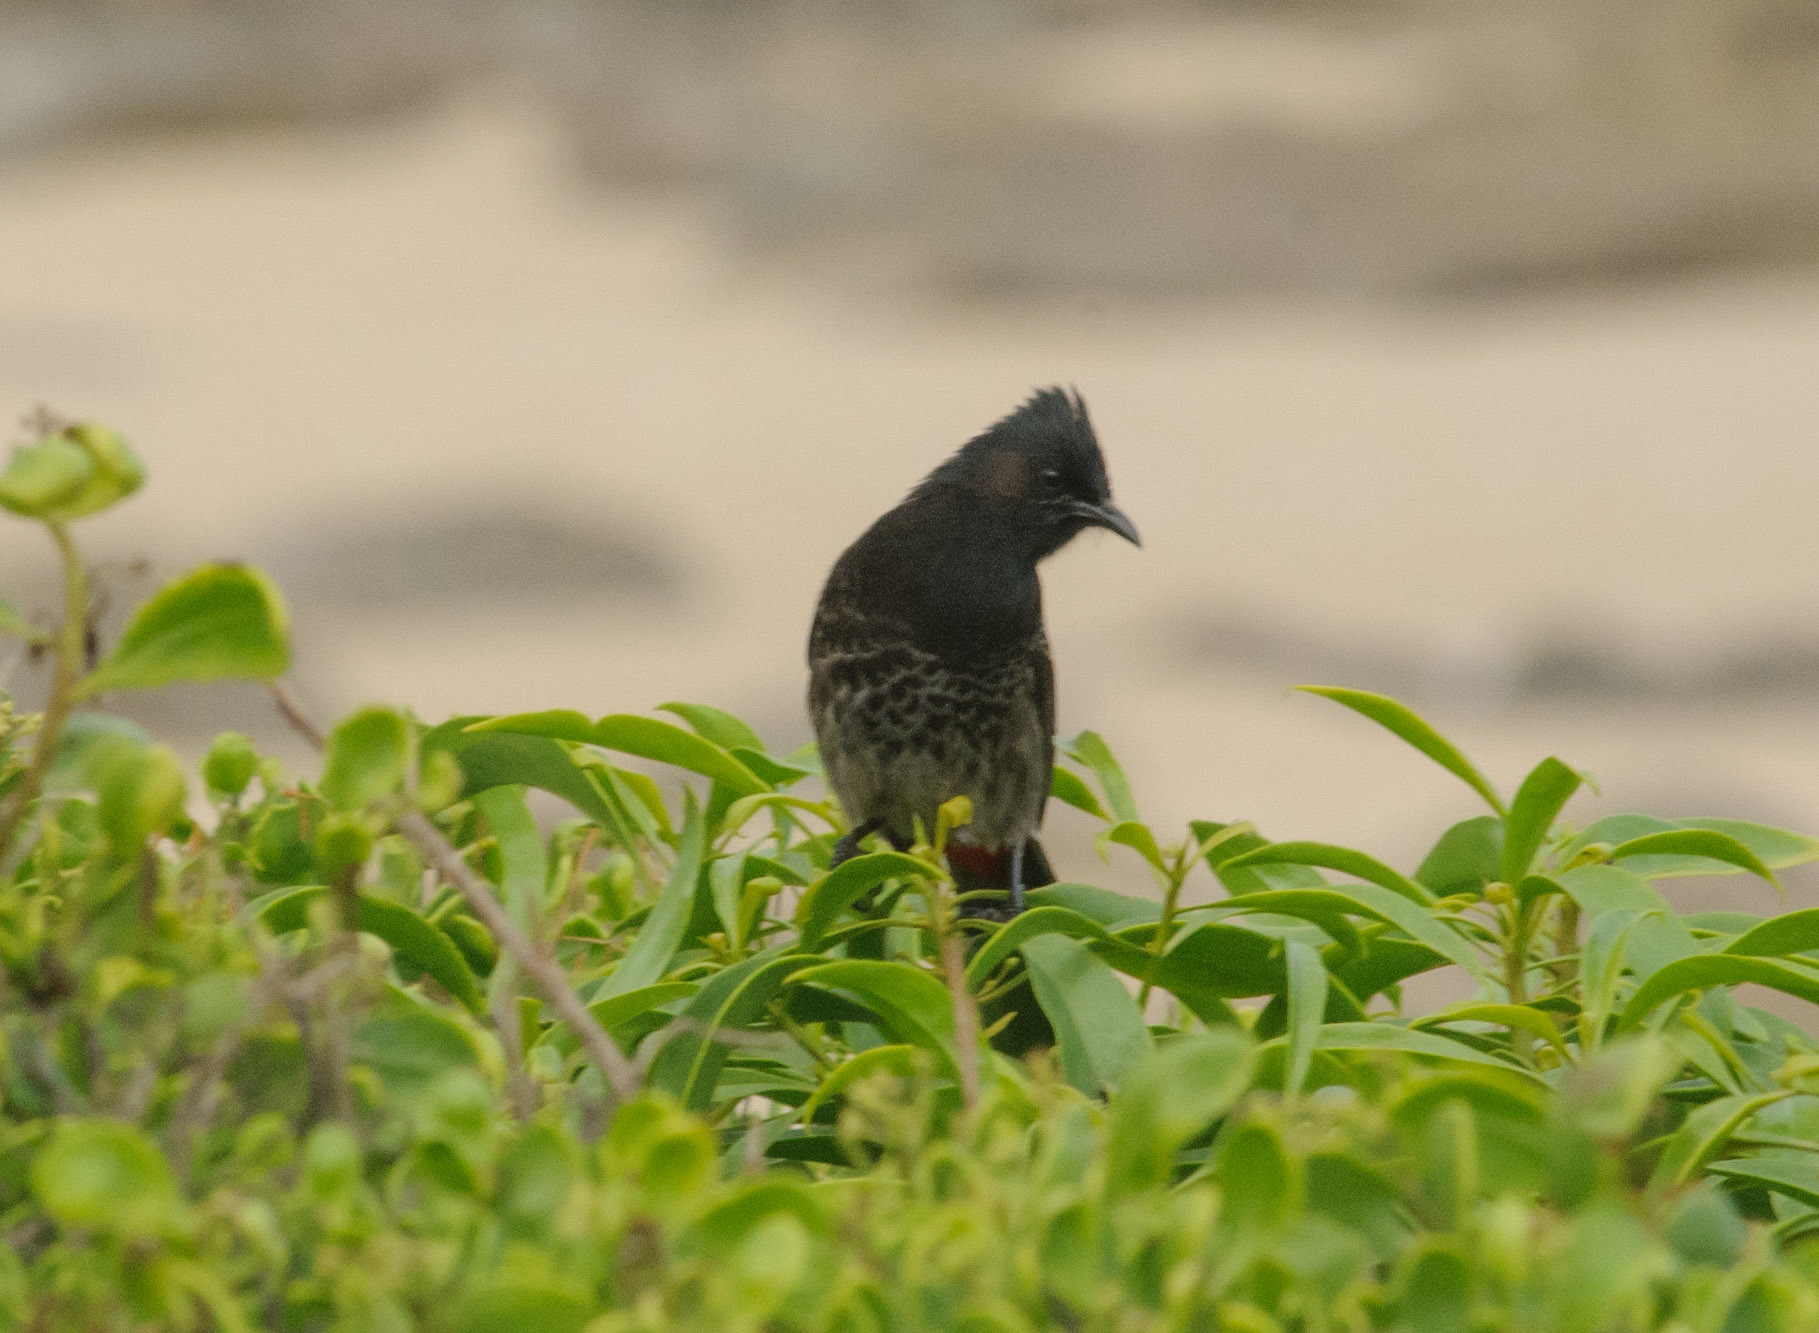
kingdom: Animalia
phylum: Chordata
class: Aves
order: Passeriformes
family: Pycnonotidae
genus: Pycnonotus
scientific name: Pycnonotus cafer
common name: Red-vented bulbul
